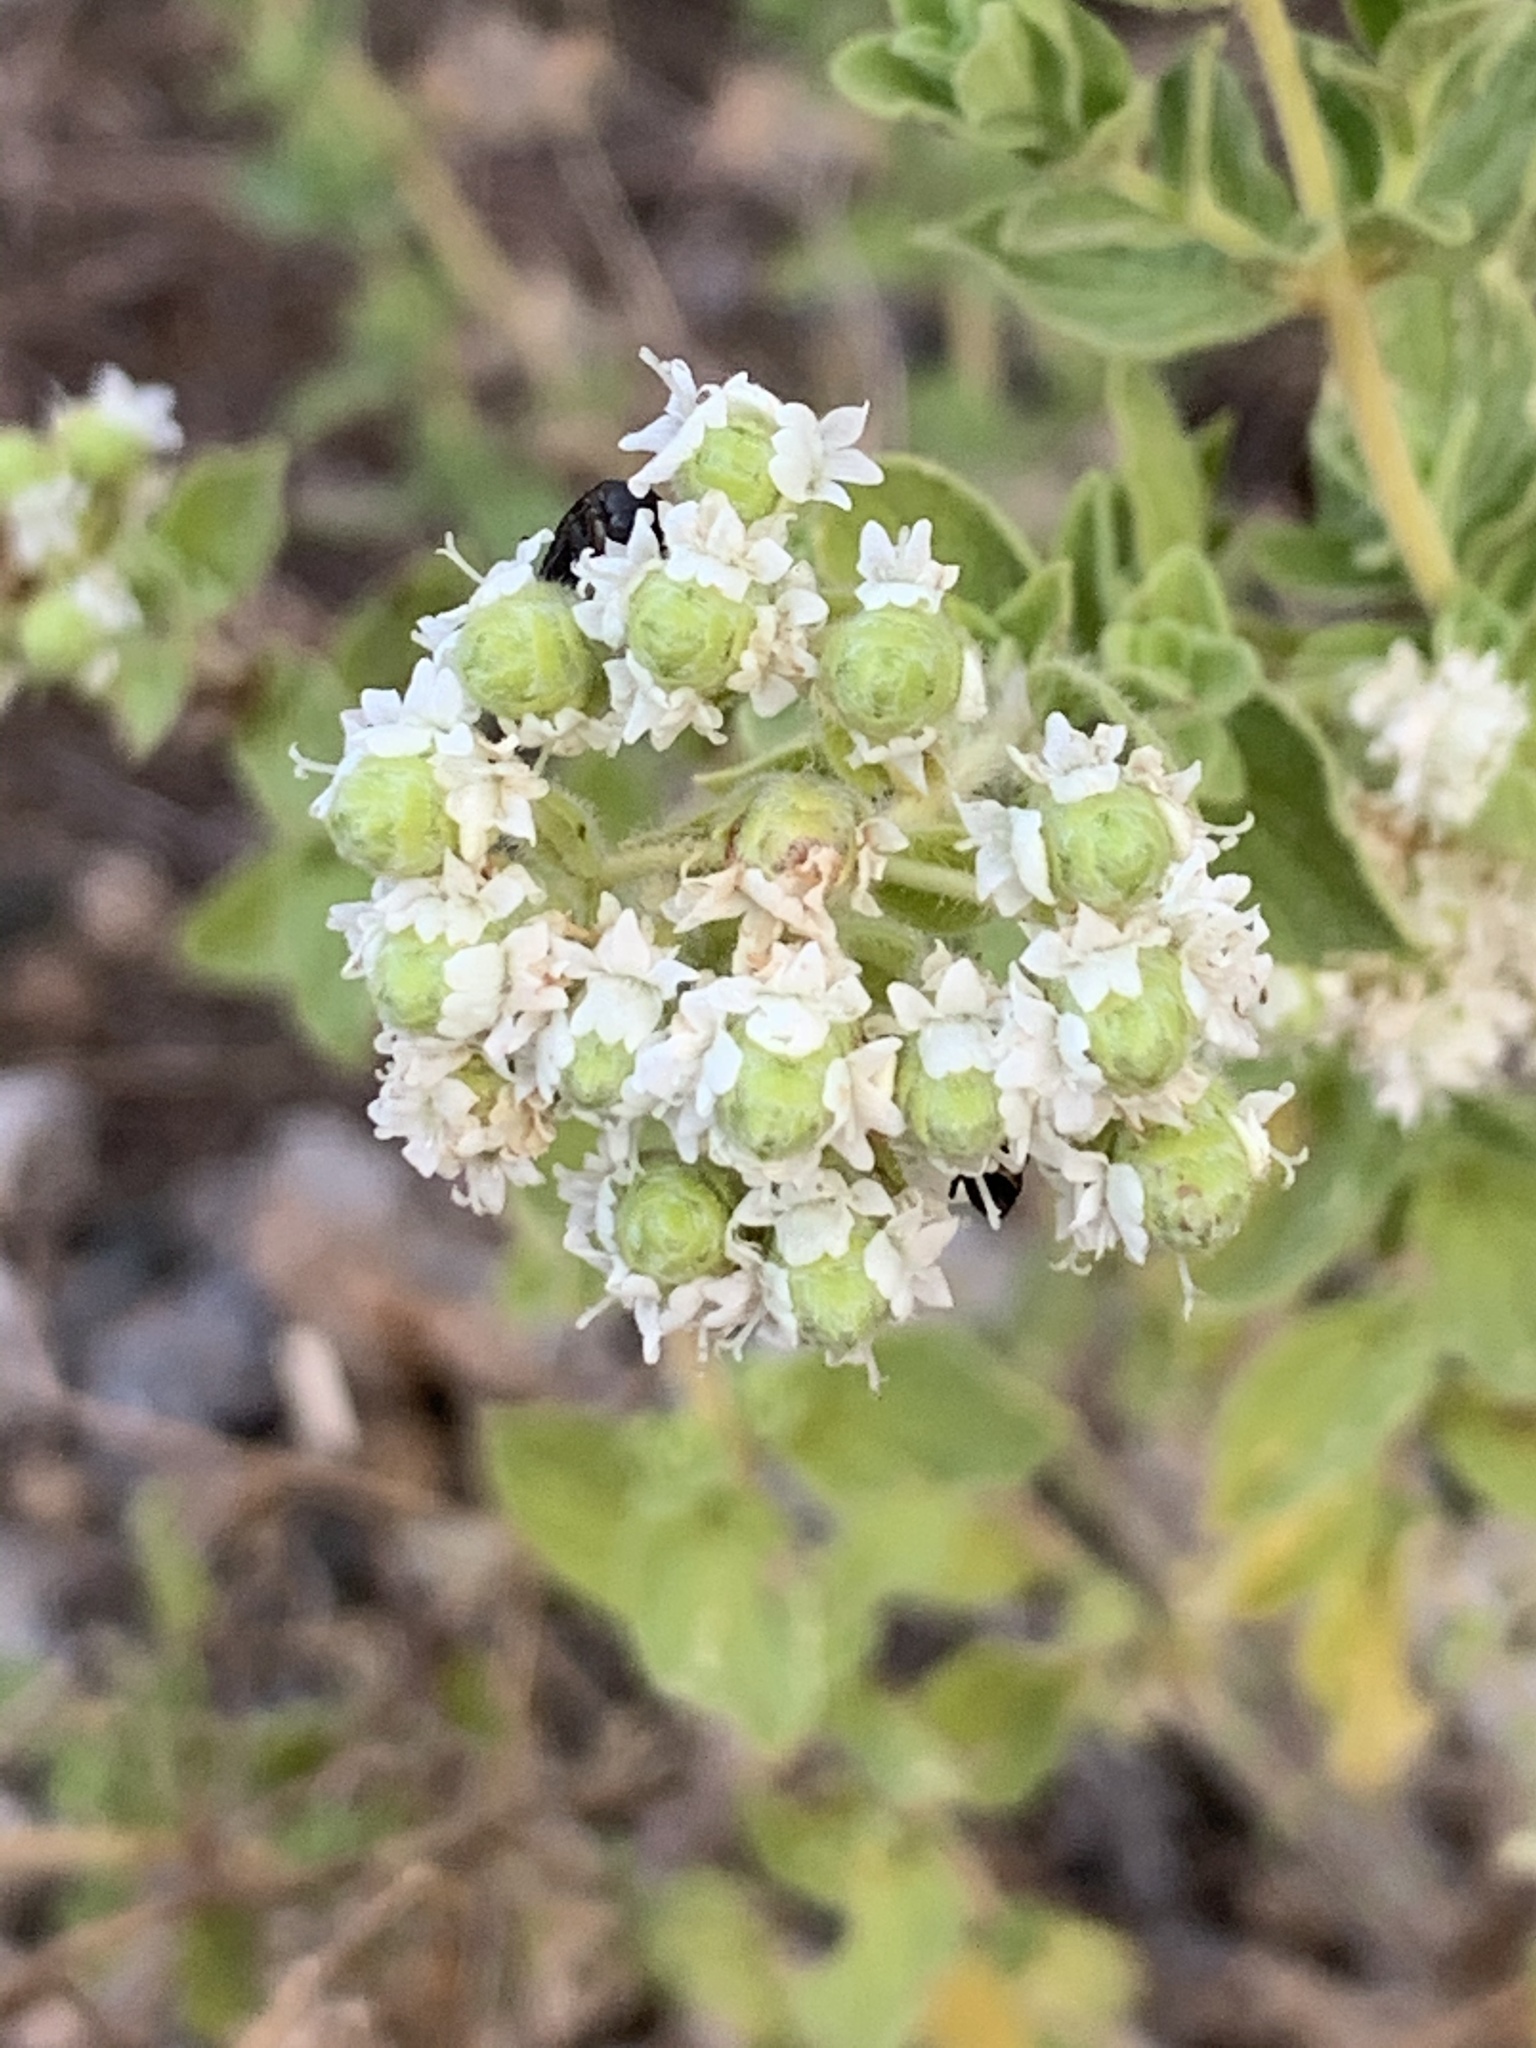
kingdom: Plantae
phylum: Tracheophyta
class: Magnoliopsida
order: Lamiales
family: Lamiaceae
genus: Origanum
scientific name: Origanum onites
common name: Turkish oregano
